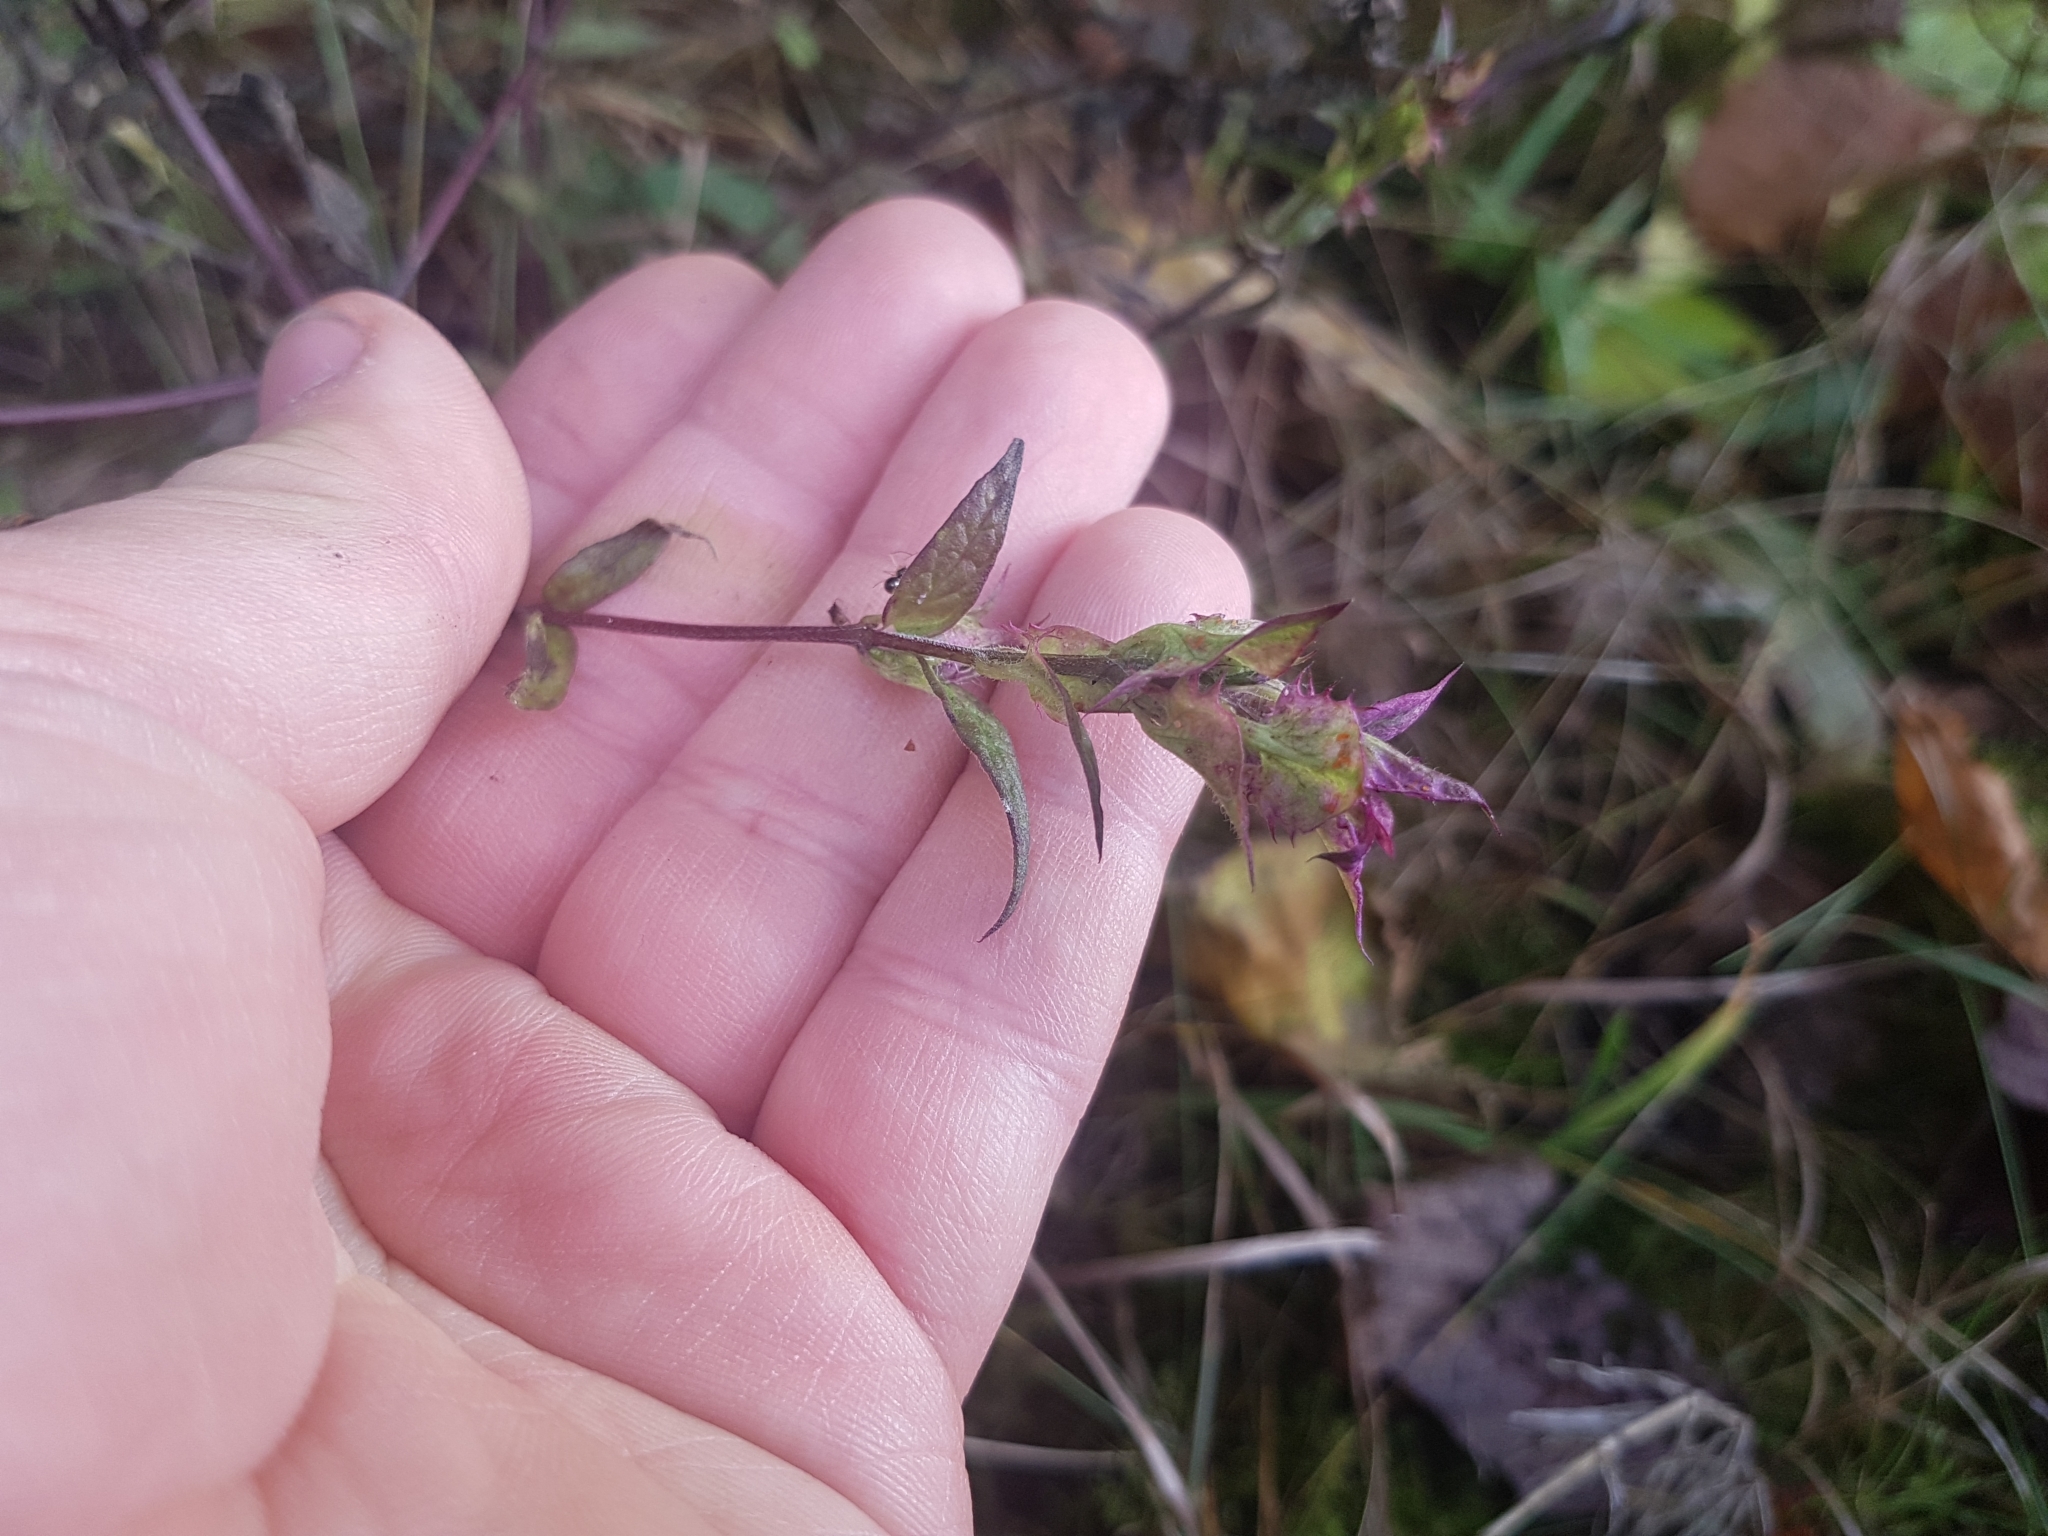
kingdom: Plantae
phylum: Tracheophyta
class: Magnoliopsida
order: Lamiales
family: Orobanchaceae
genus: Melampyrum
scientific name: Melampyrum nemorosum
